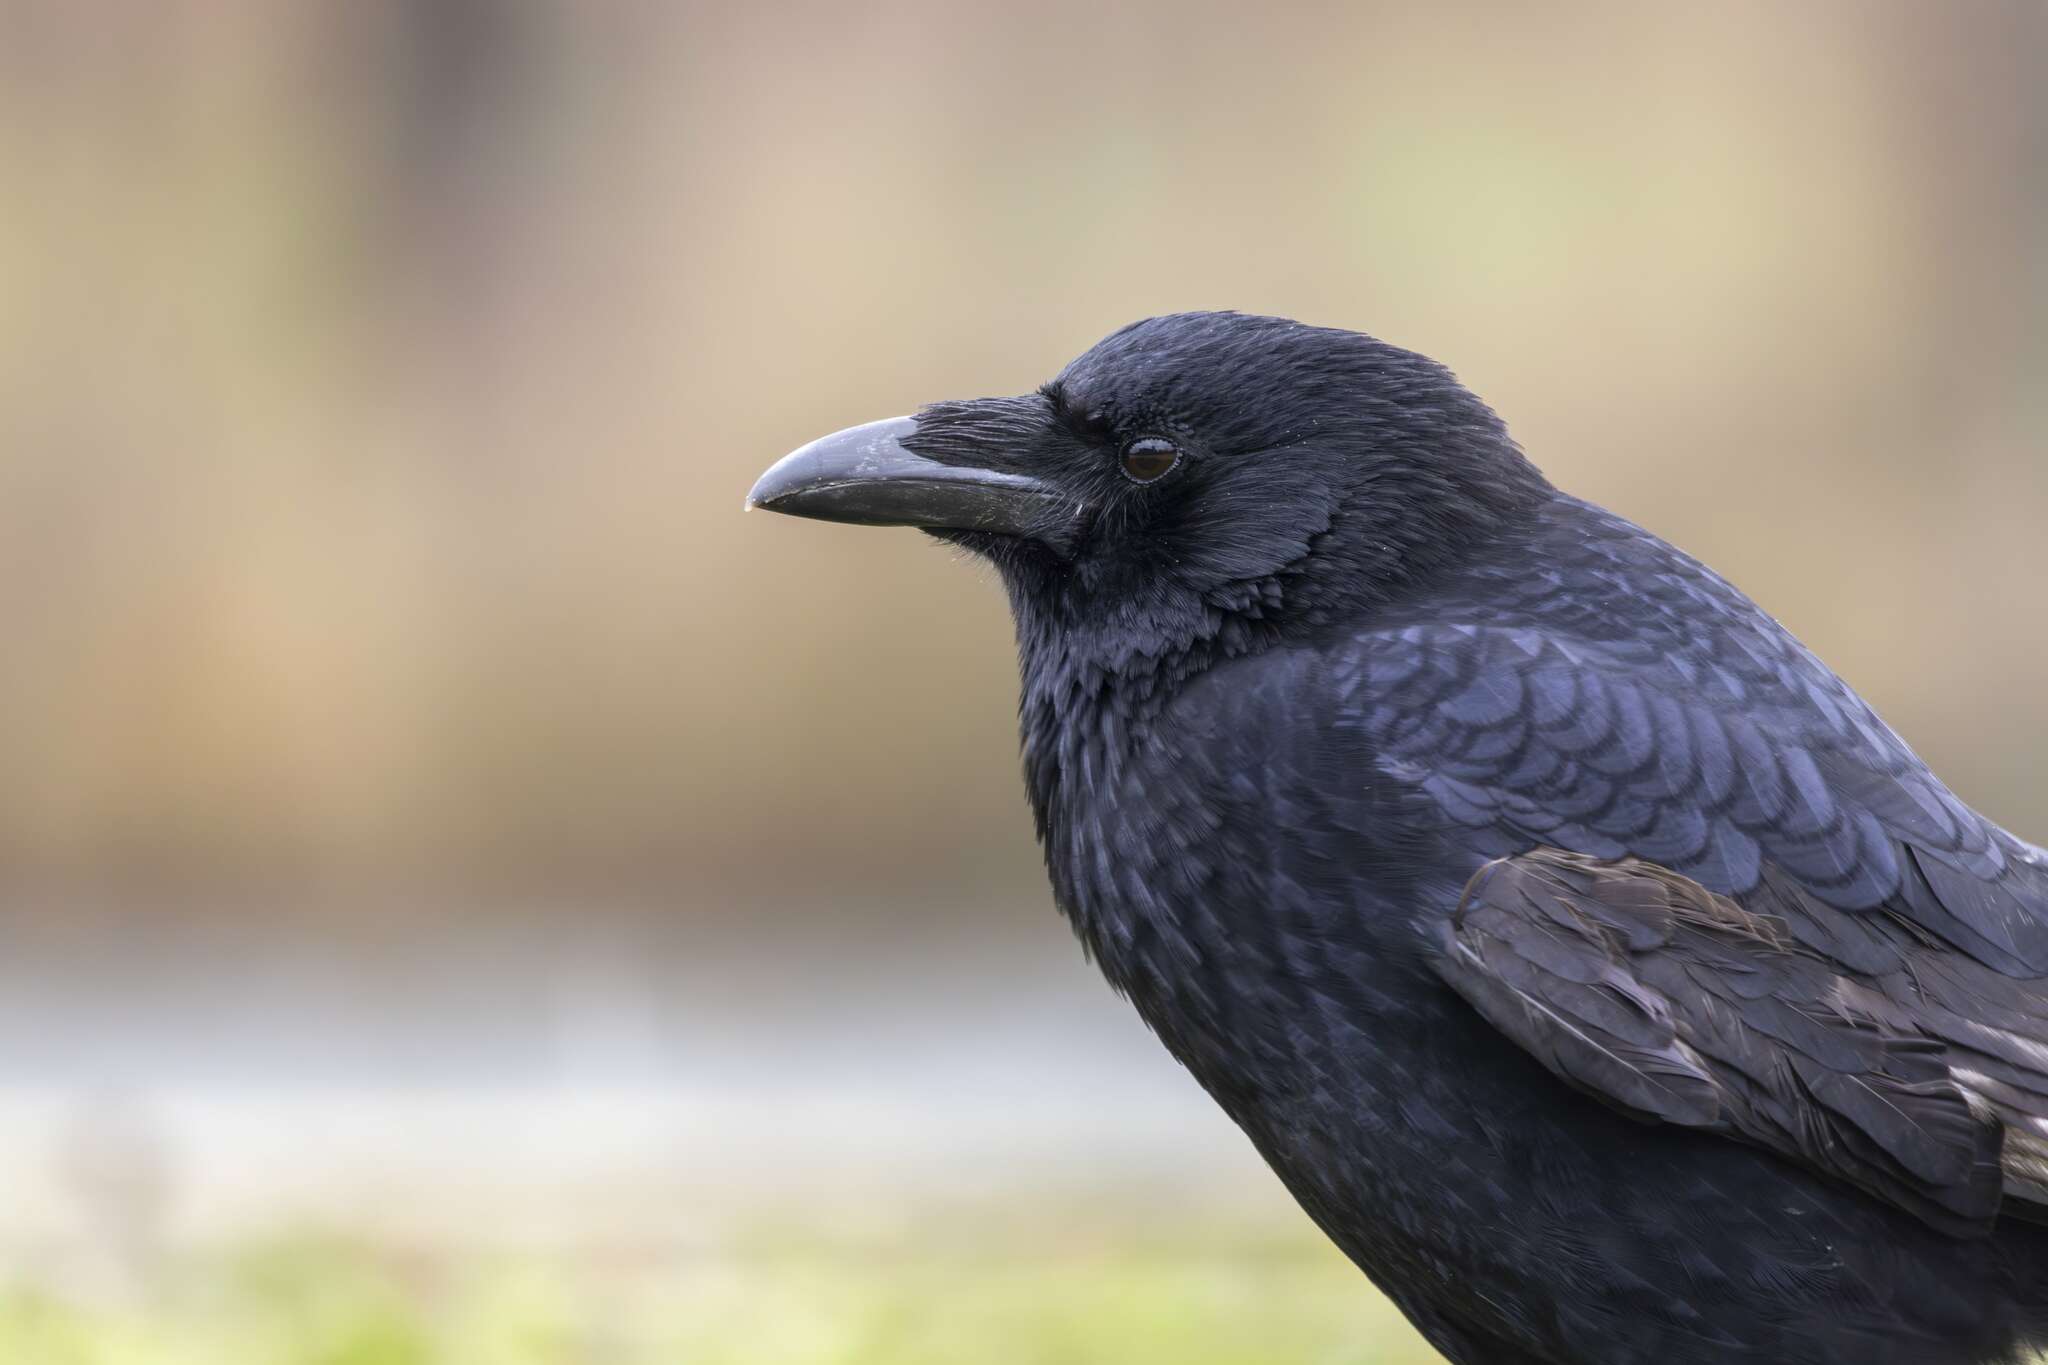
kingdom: Animalia
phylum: Chordata
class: Aves
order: Passeriformes
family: Corvidae
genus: Corvus
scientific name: Corvus corone
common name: Carrion crow
